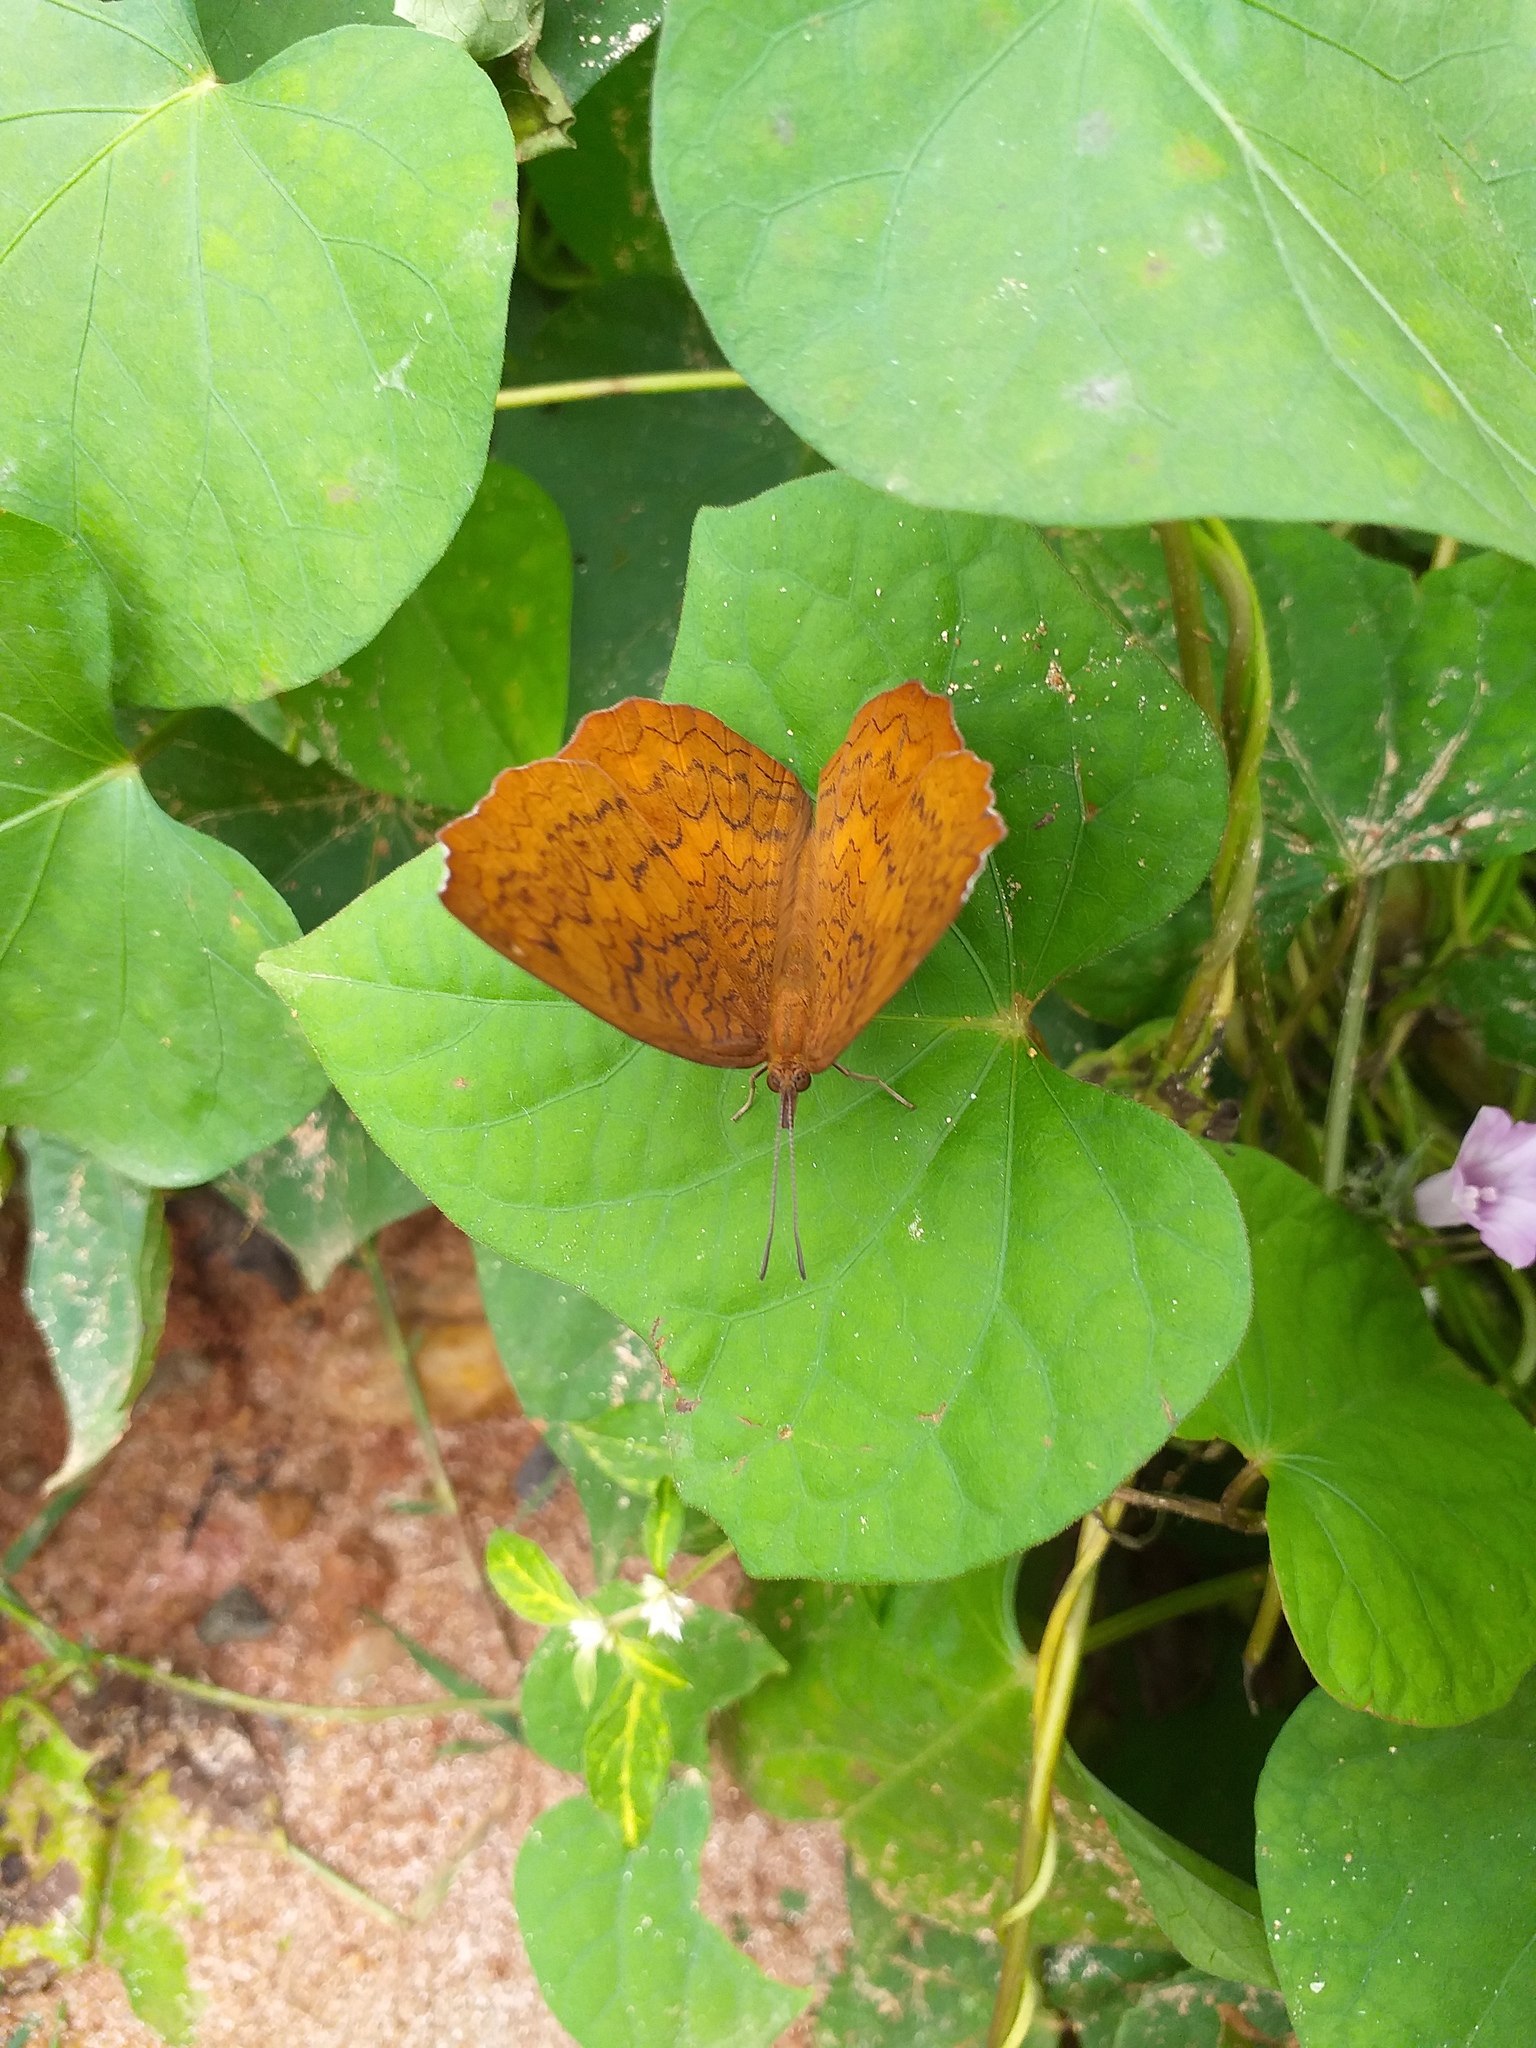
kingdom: Animalia
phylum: Arthropoda
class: Insecta
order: Lepidoptera
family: Nymphalidae
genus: Ariadne
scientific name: Ariadne merione
